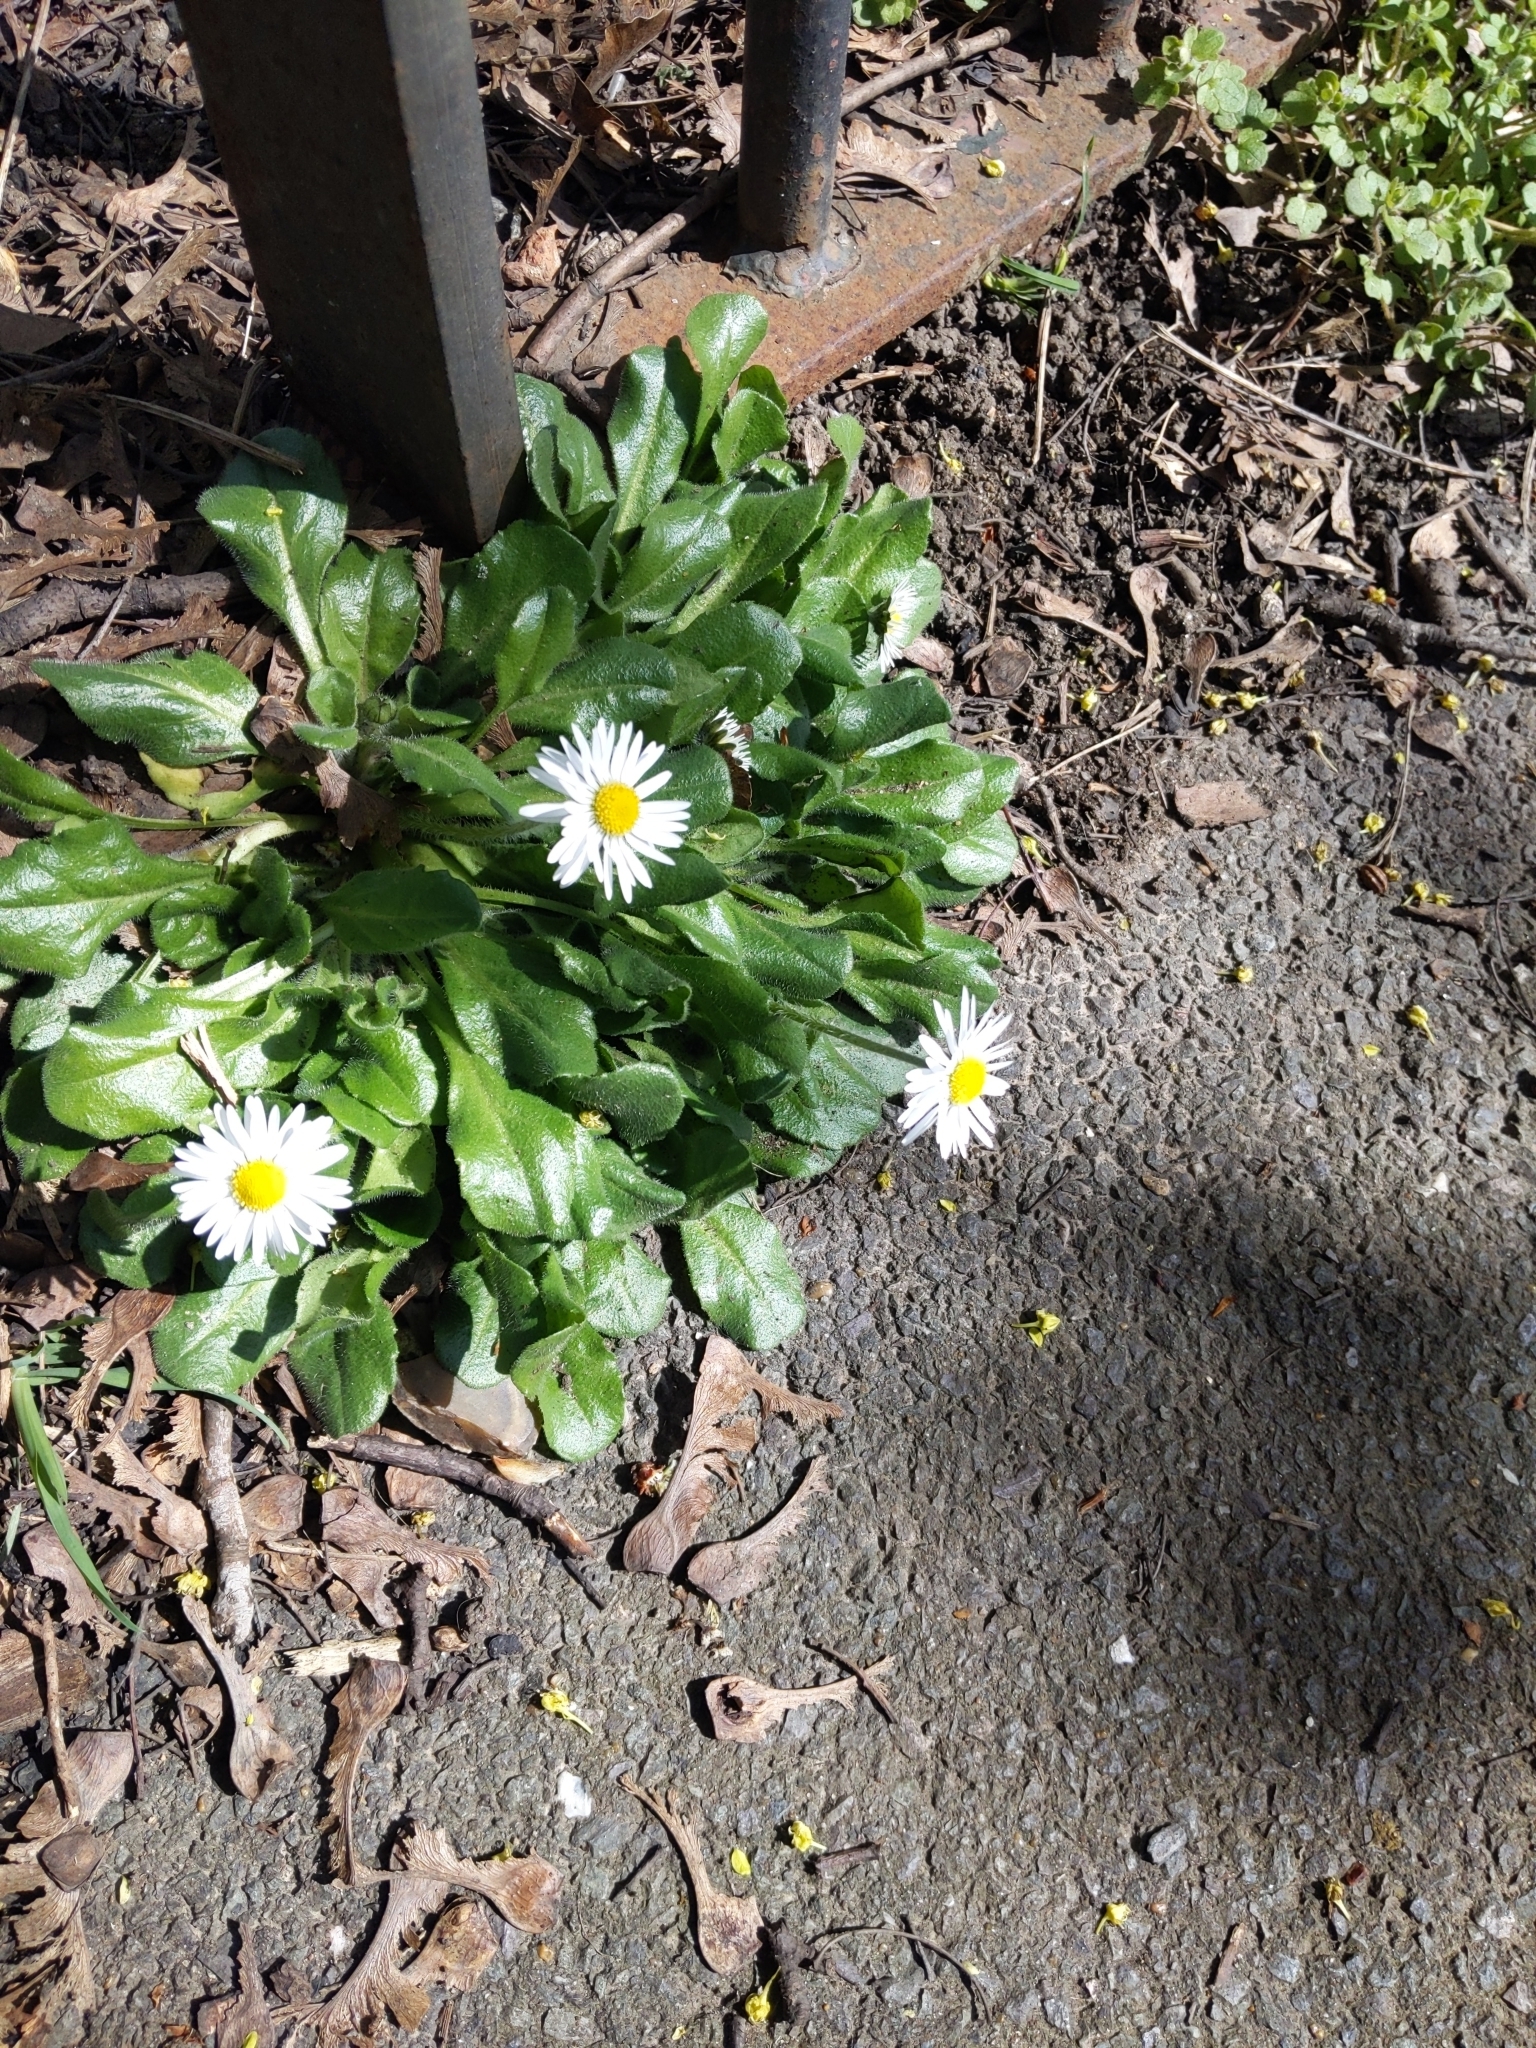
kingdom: Plantae
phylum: Tracheophyta
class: Magnoliopsida
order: Asterales
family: Asteraceae
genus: Bellis
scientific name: Bellis perennis
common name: Lawndaisy
